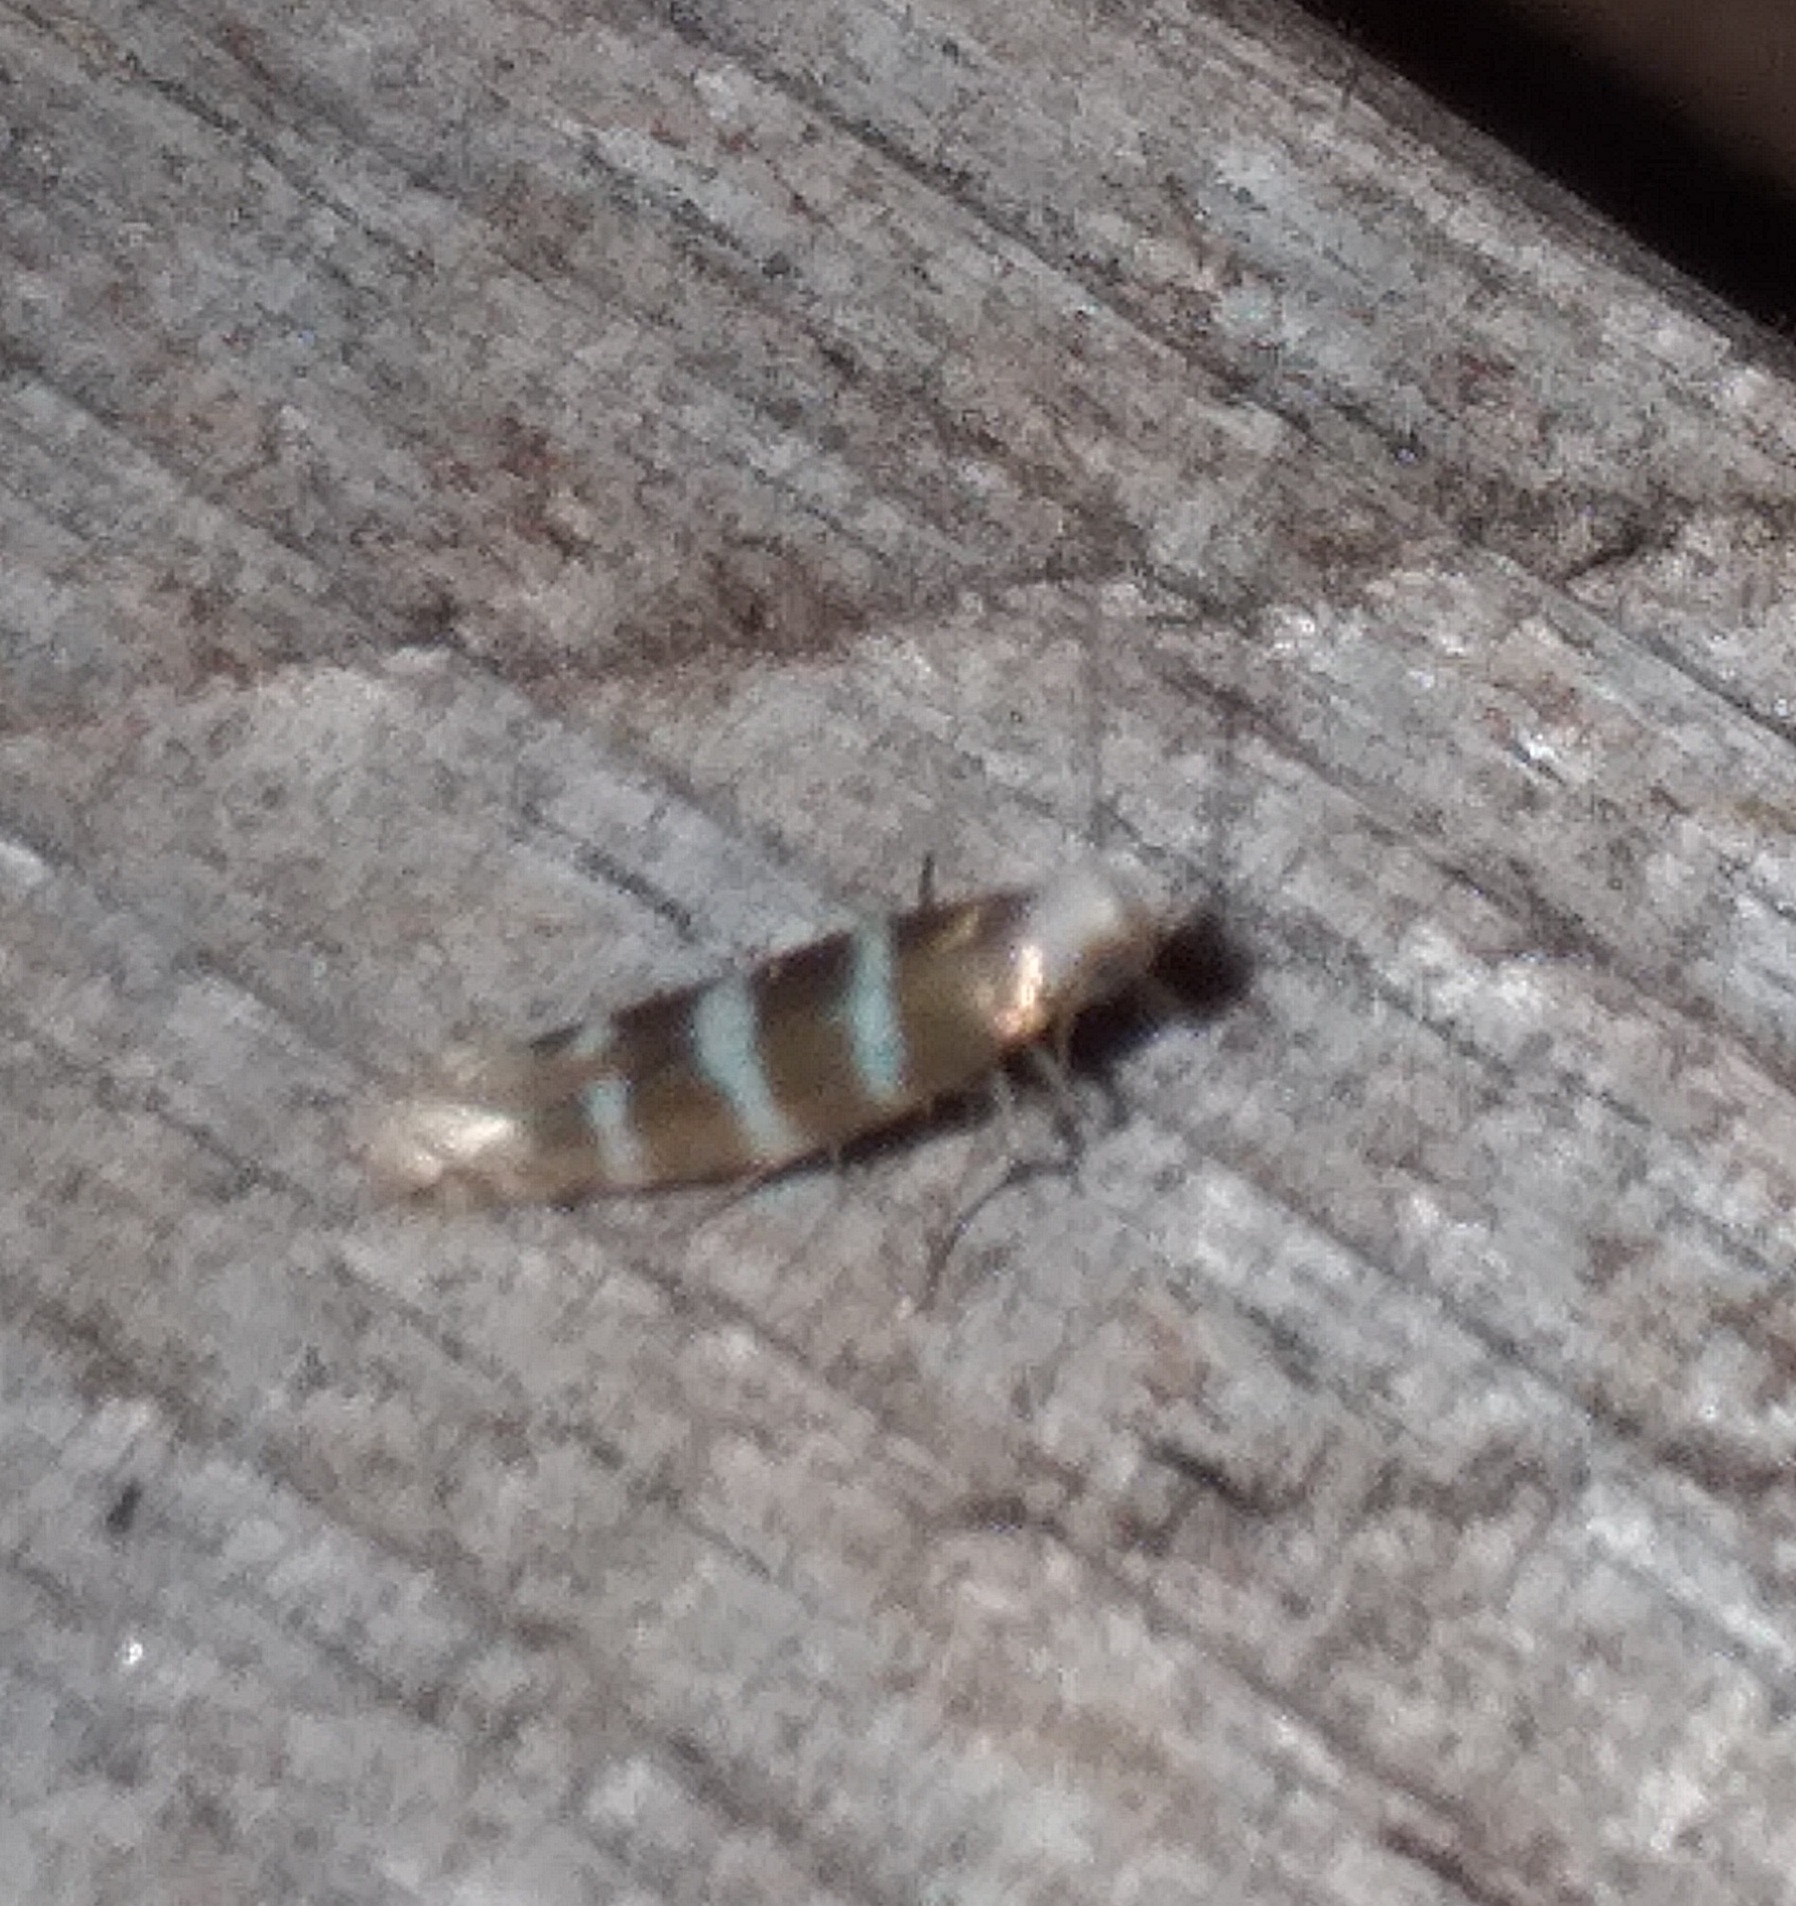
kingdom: Animalia
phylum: Arthropoda
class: Insecta
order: Lepidoptera
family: Argyresthiidae
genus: Argyresthia
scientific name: Argyresthia trifasciata
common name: Triple-barred argent
